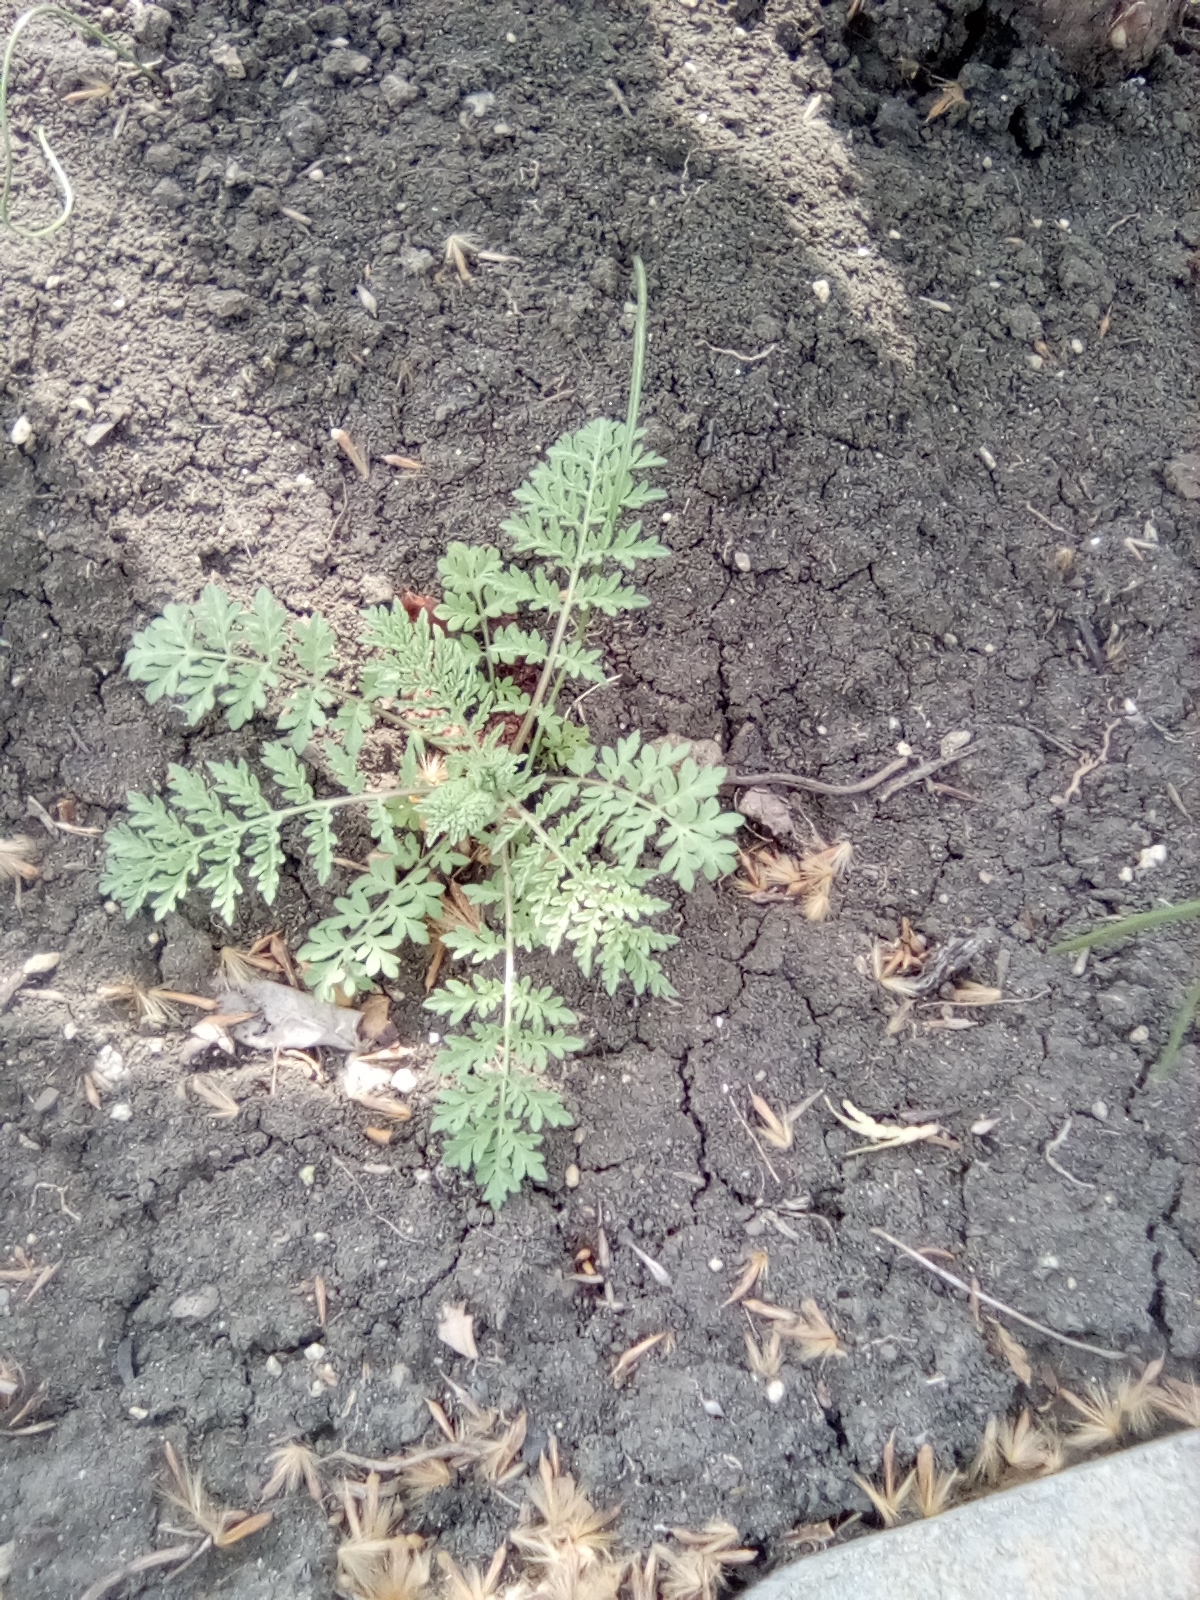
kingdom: Plantae
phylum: Tracheophyta
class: Magnoliopsida
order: Brassicales
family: Brassicaceae
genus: Descurainia
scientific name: Descurainia sophia
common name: Flixweed
